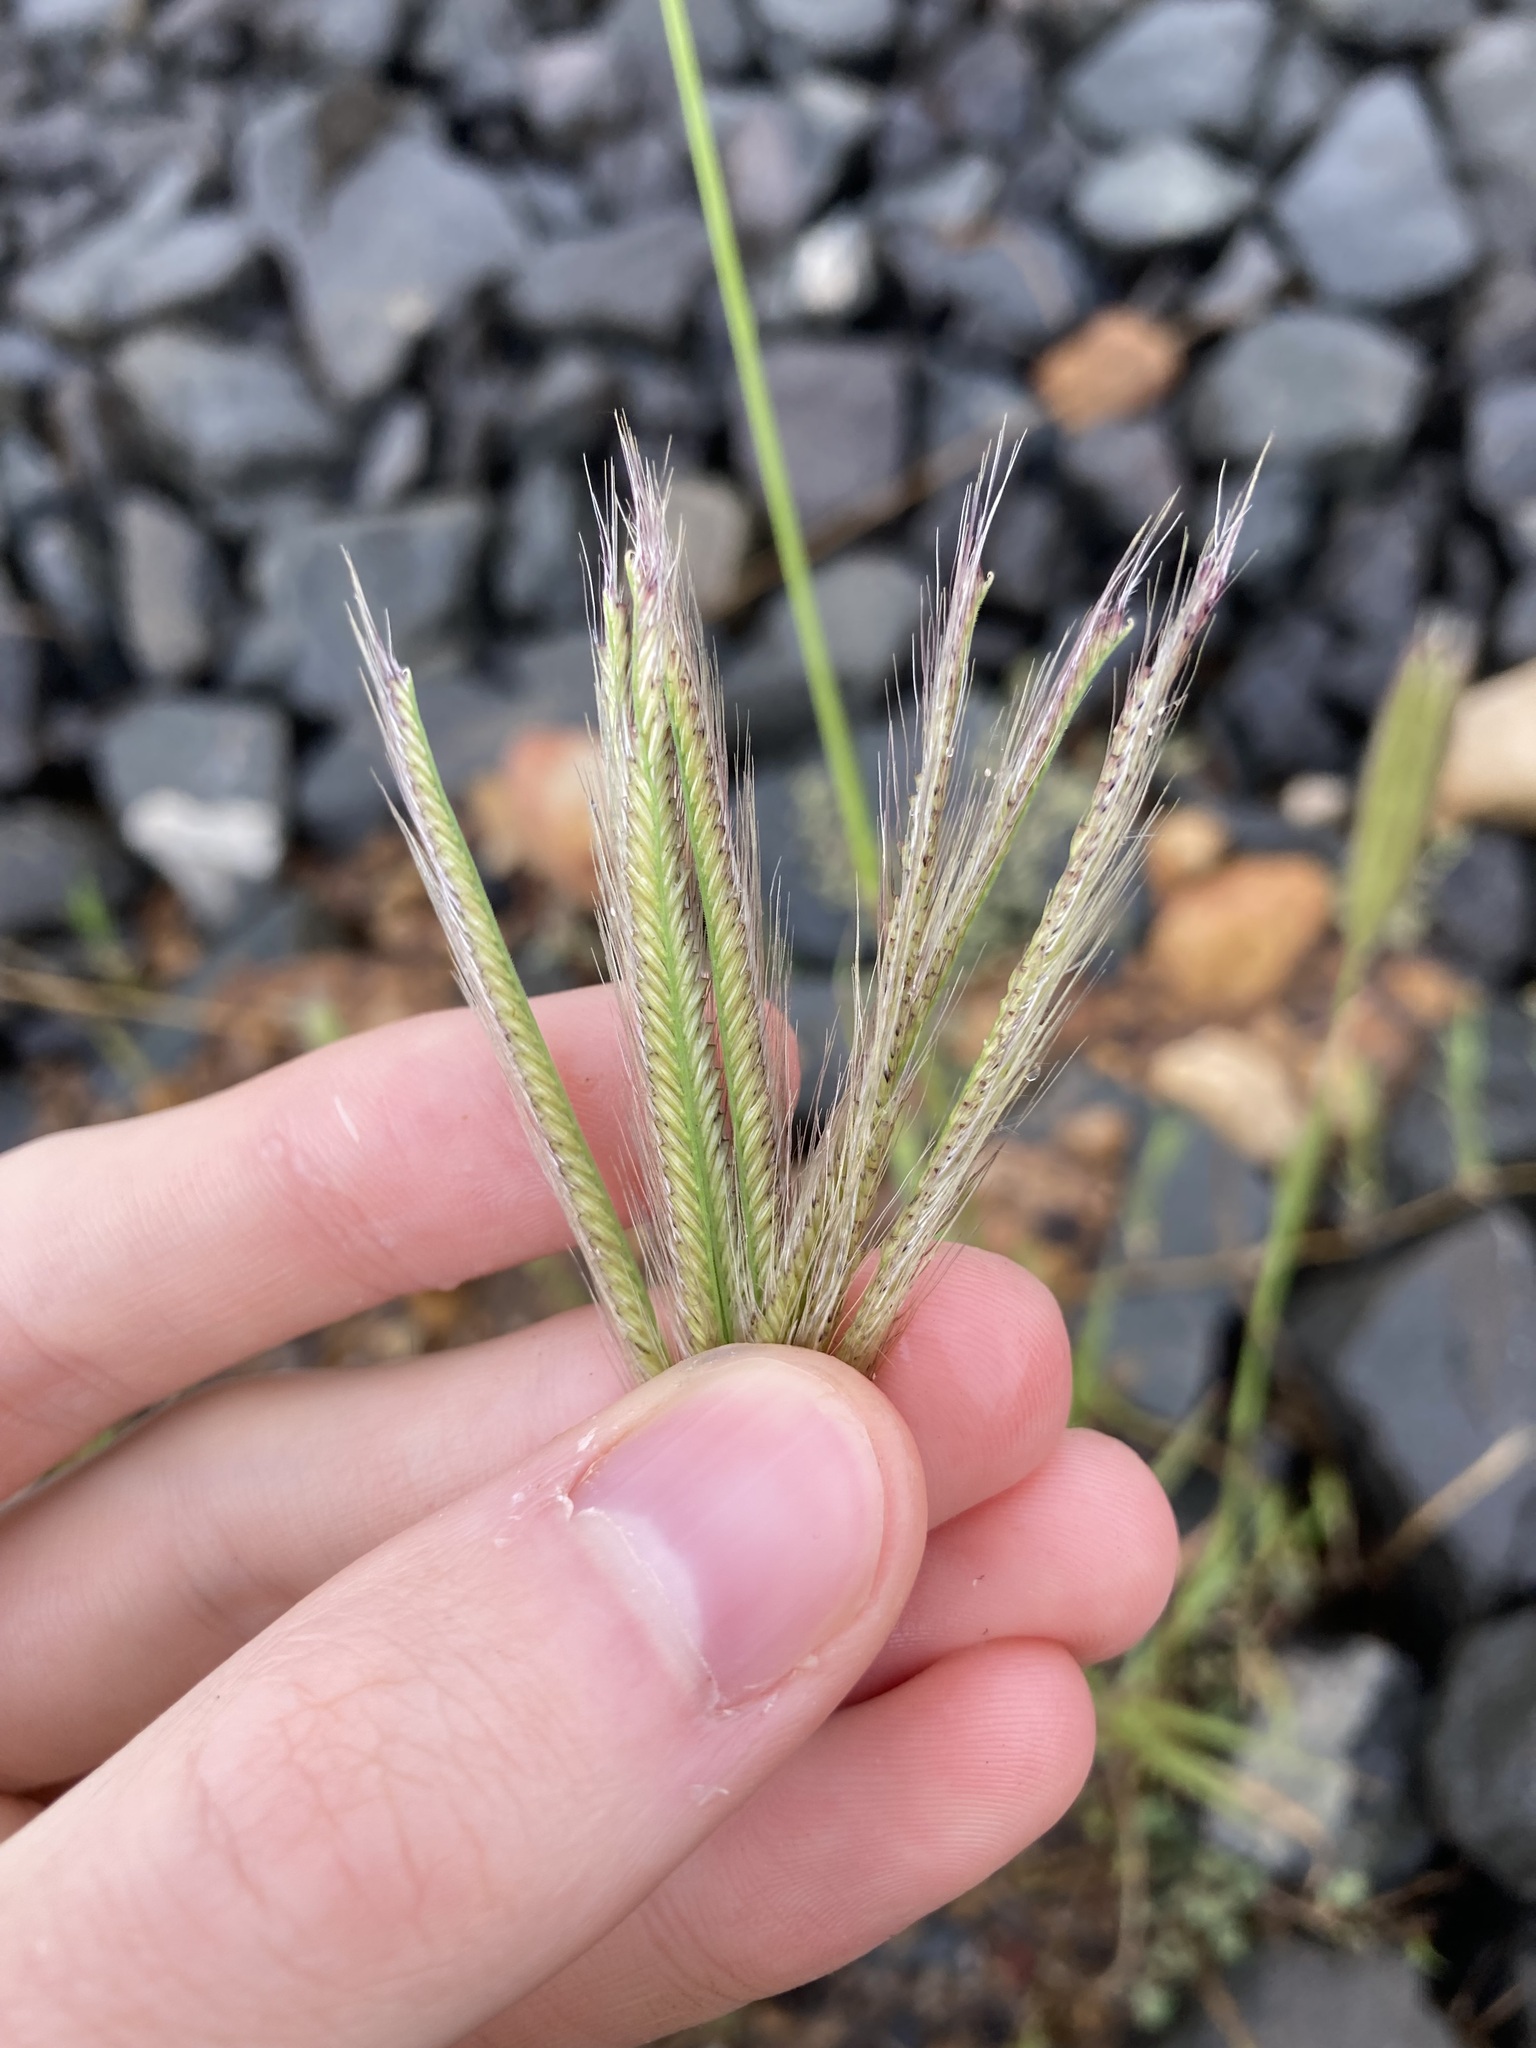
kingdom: Plantae
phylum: Tracheophyta
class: Liliopsida
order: Poales
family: Poaceae
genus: Chloris
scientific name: Chloris virgata
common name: Feathery rhodes-grass
